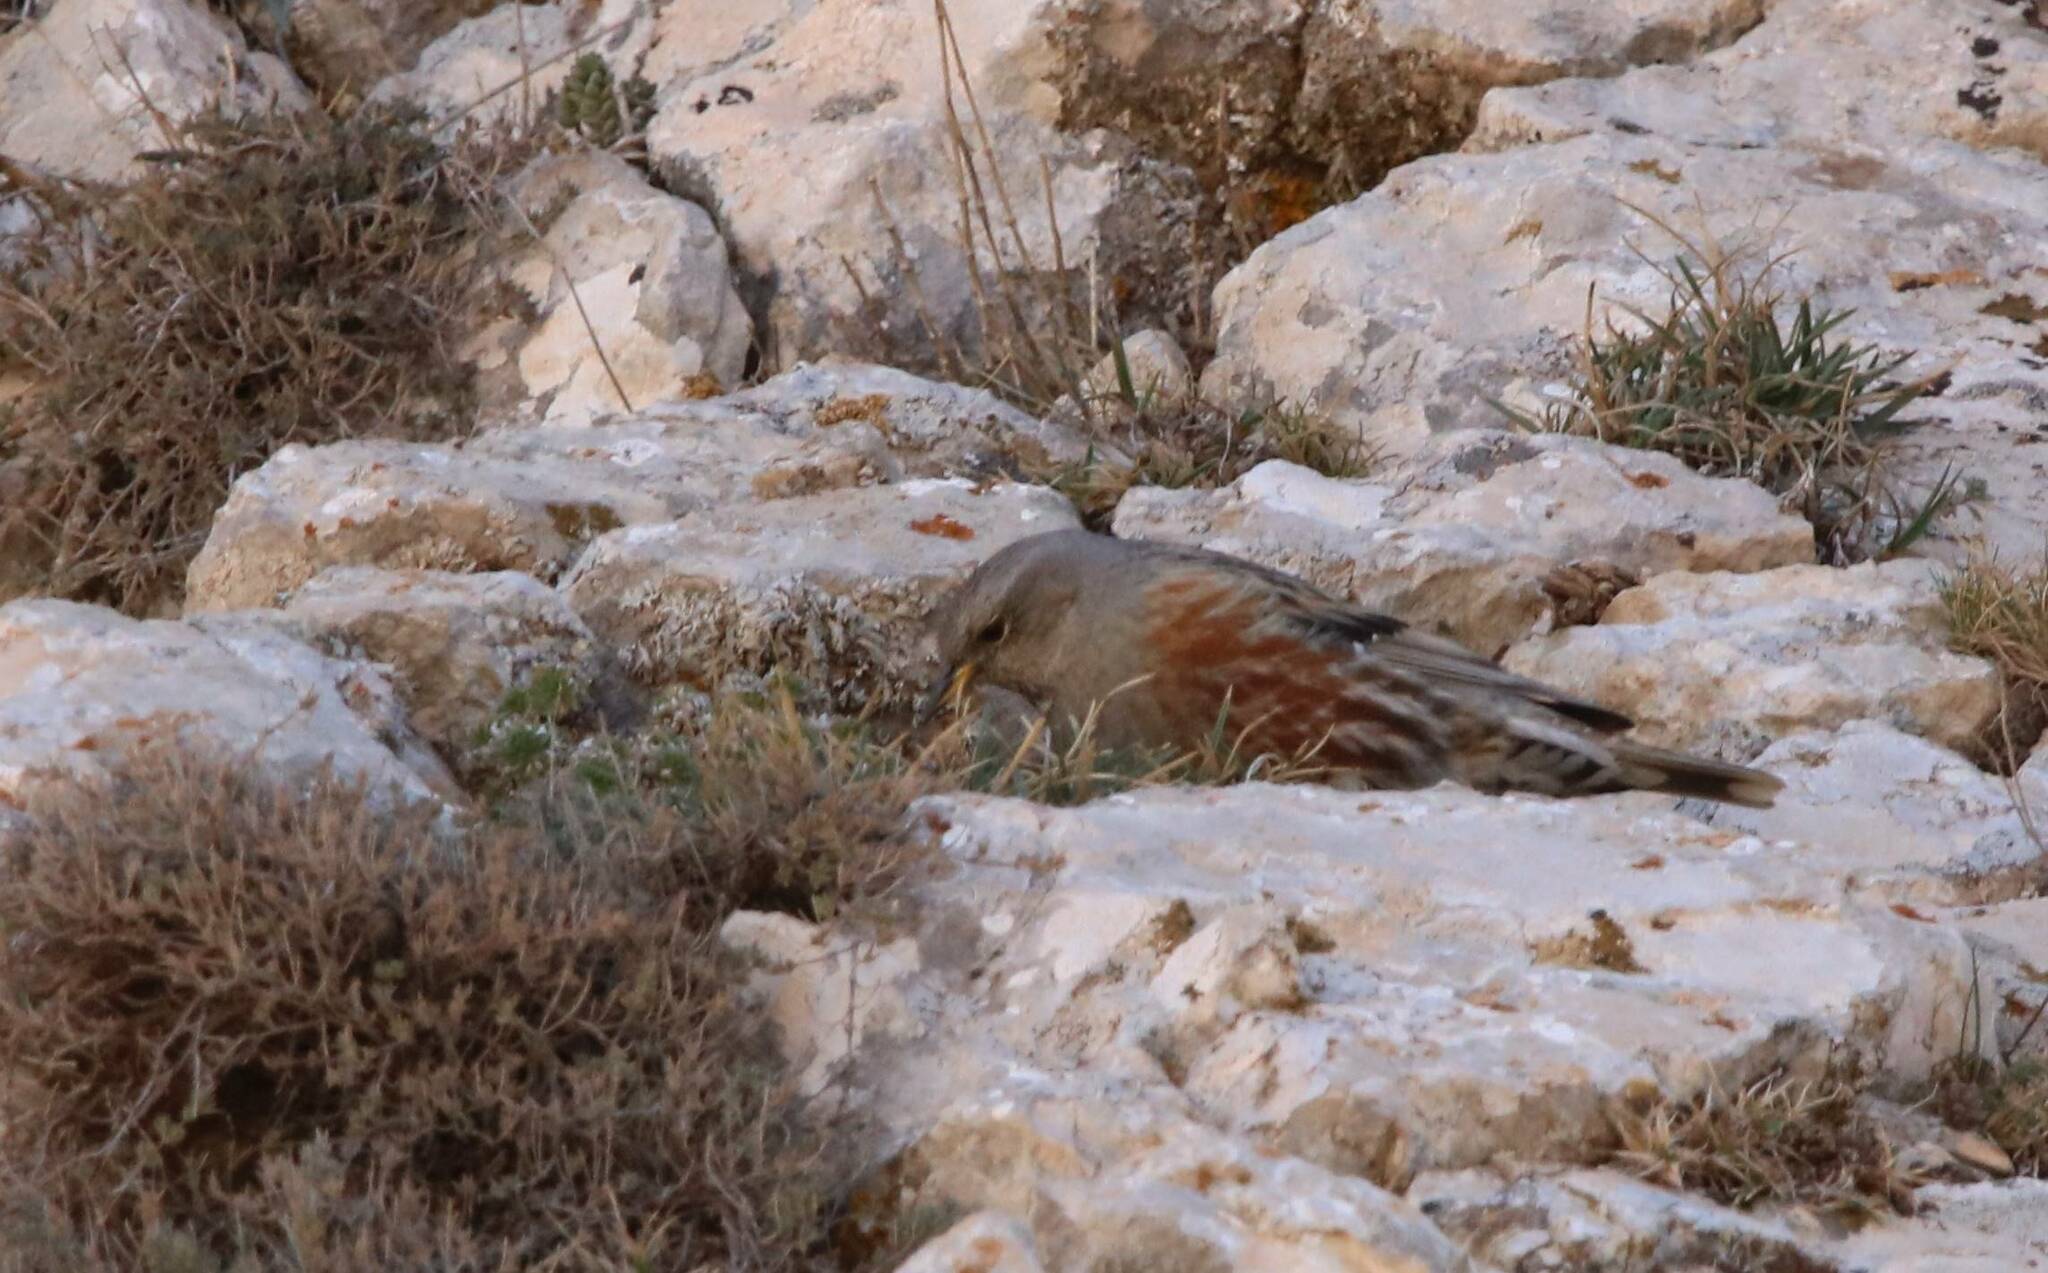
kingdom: Animalia
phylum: Chordata
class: Aves
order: Passeriformes
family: Prunellidae
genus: Prunella
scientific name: Prunella collaris
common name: Alpine accentor
